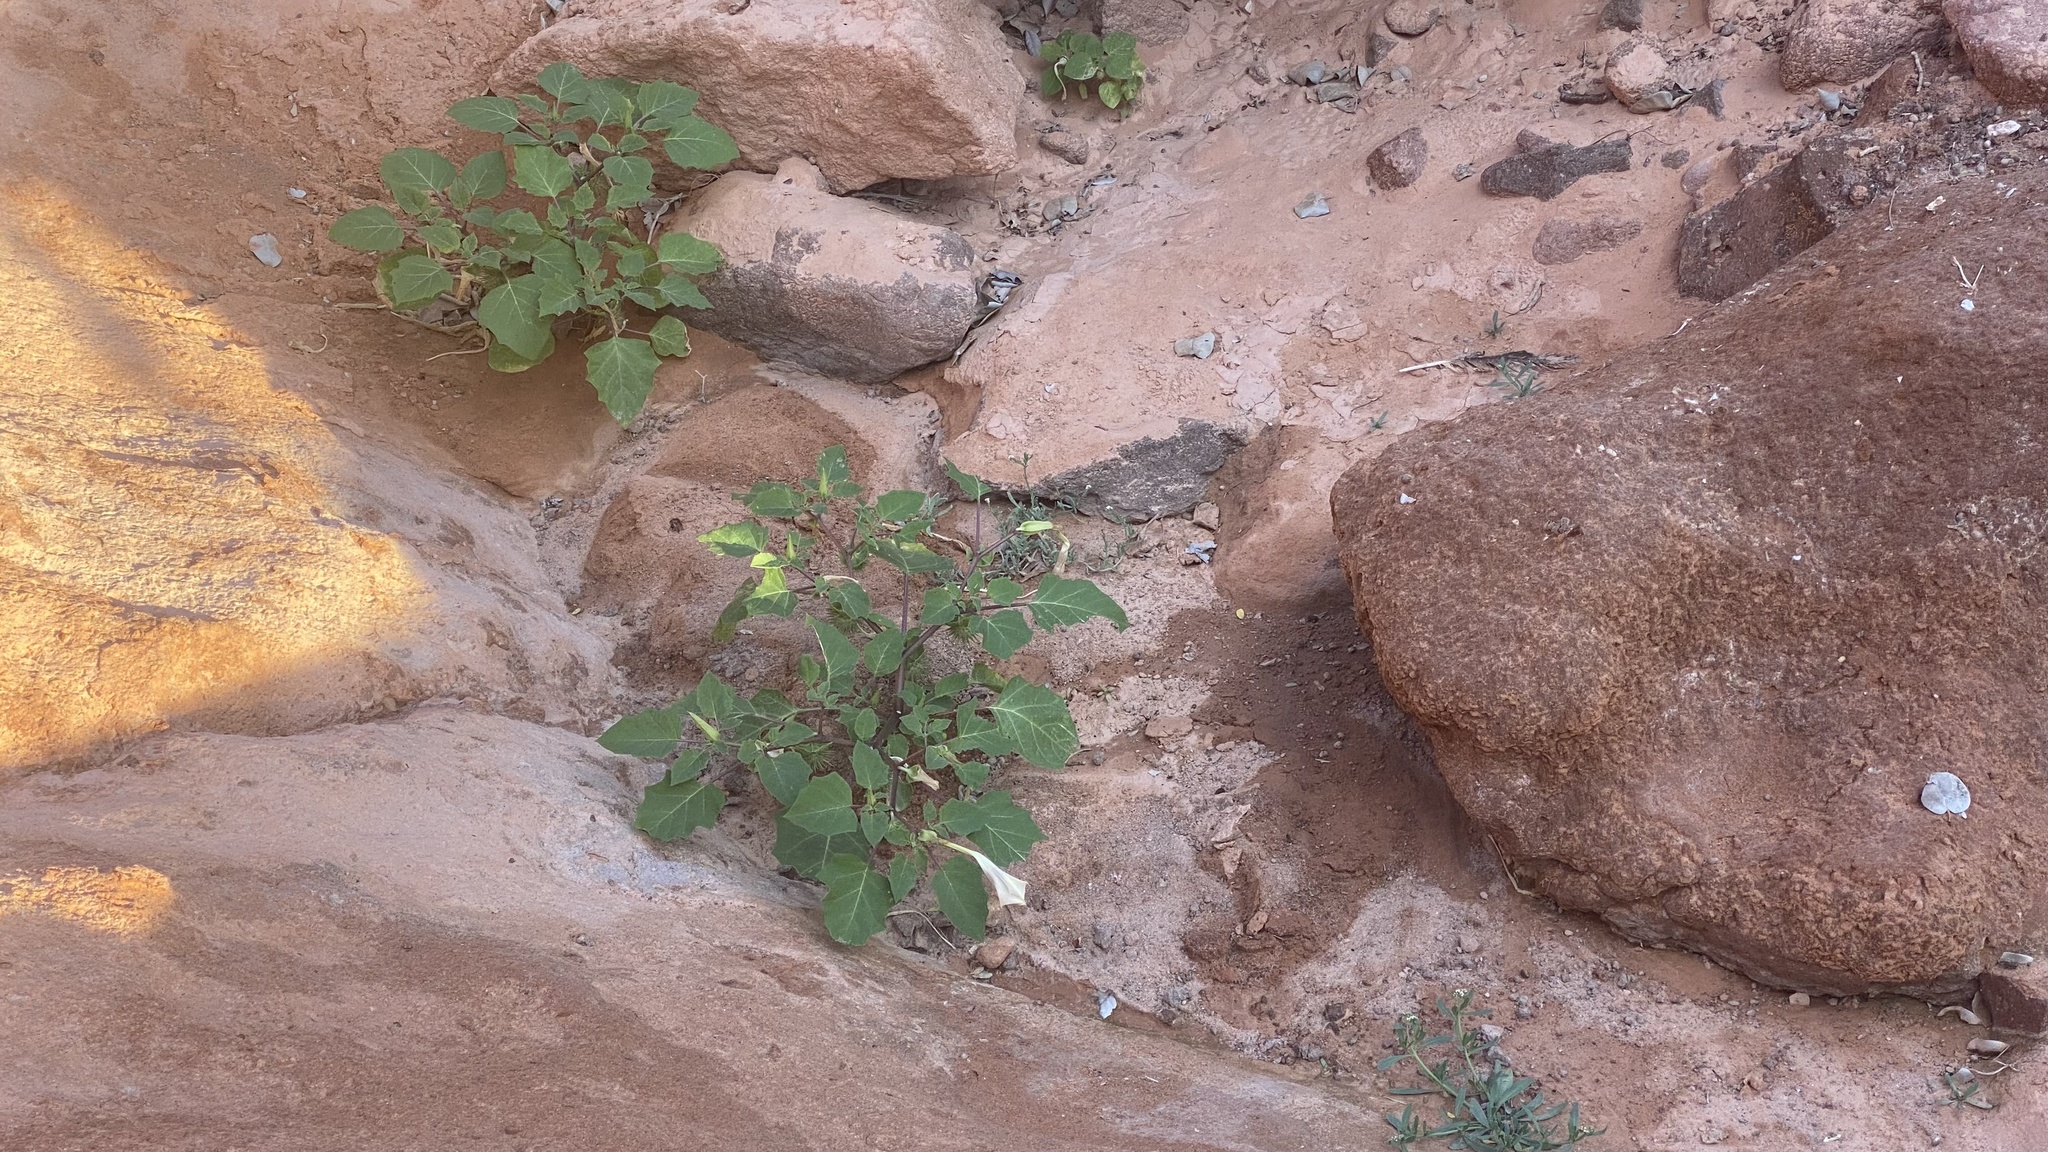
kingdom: Plantae
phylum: Tracheophyta
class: Magnoliopsida
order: Solanales
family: Solanaceae
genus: Datura
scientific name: Datura discolor
